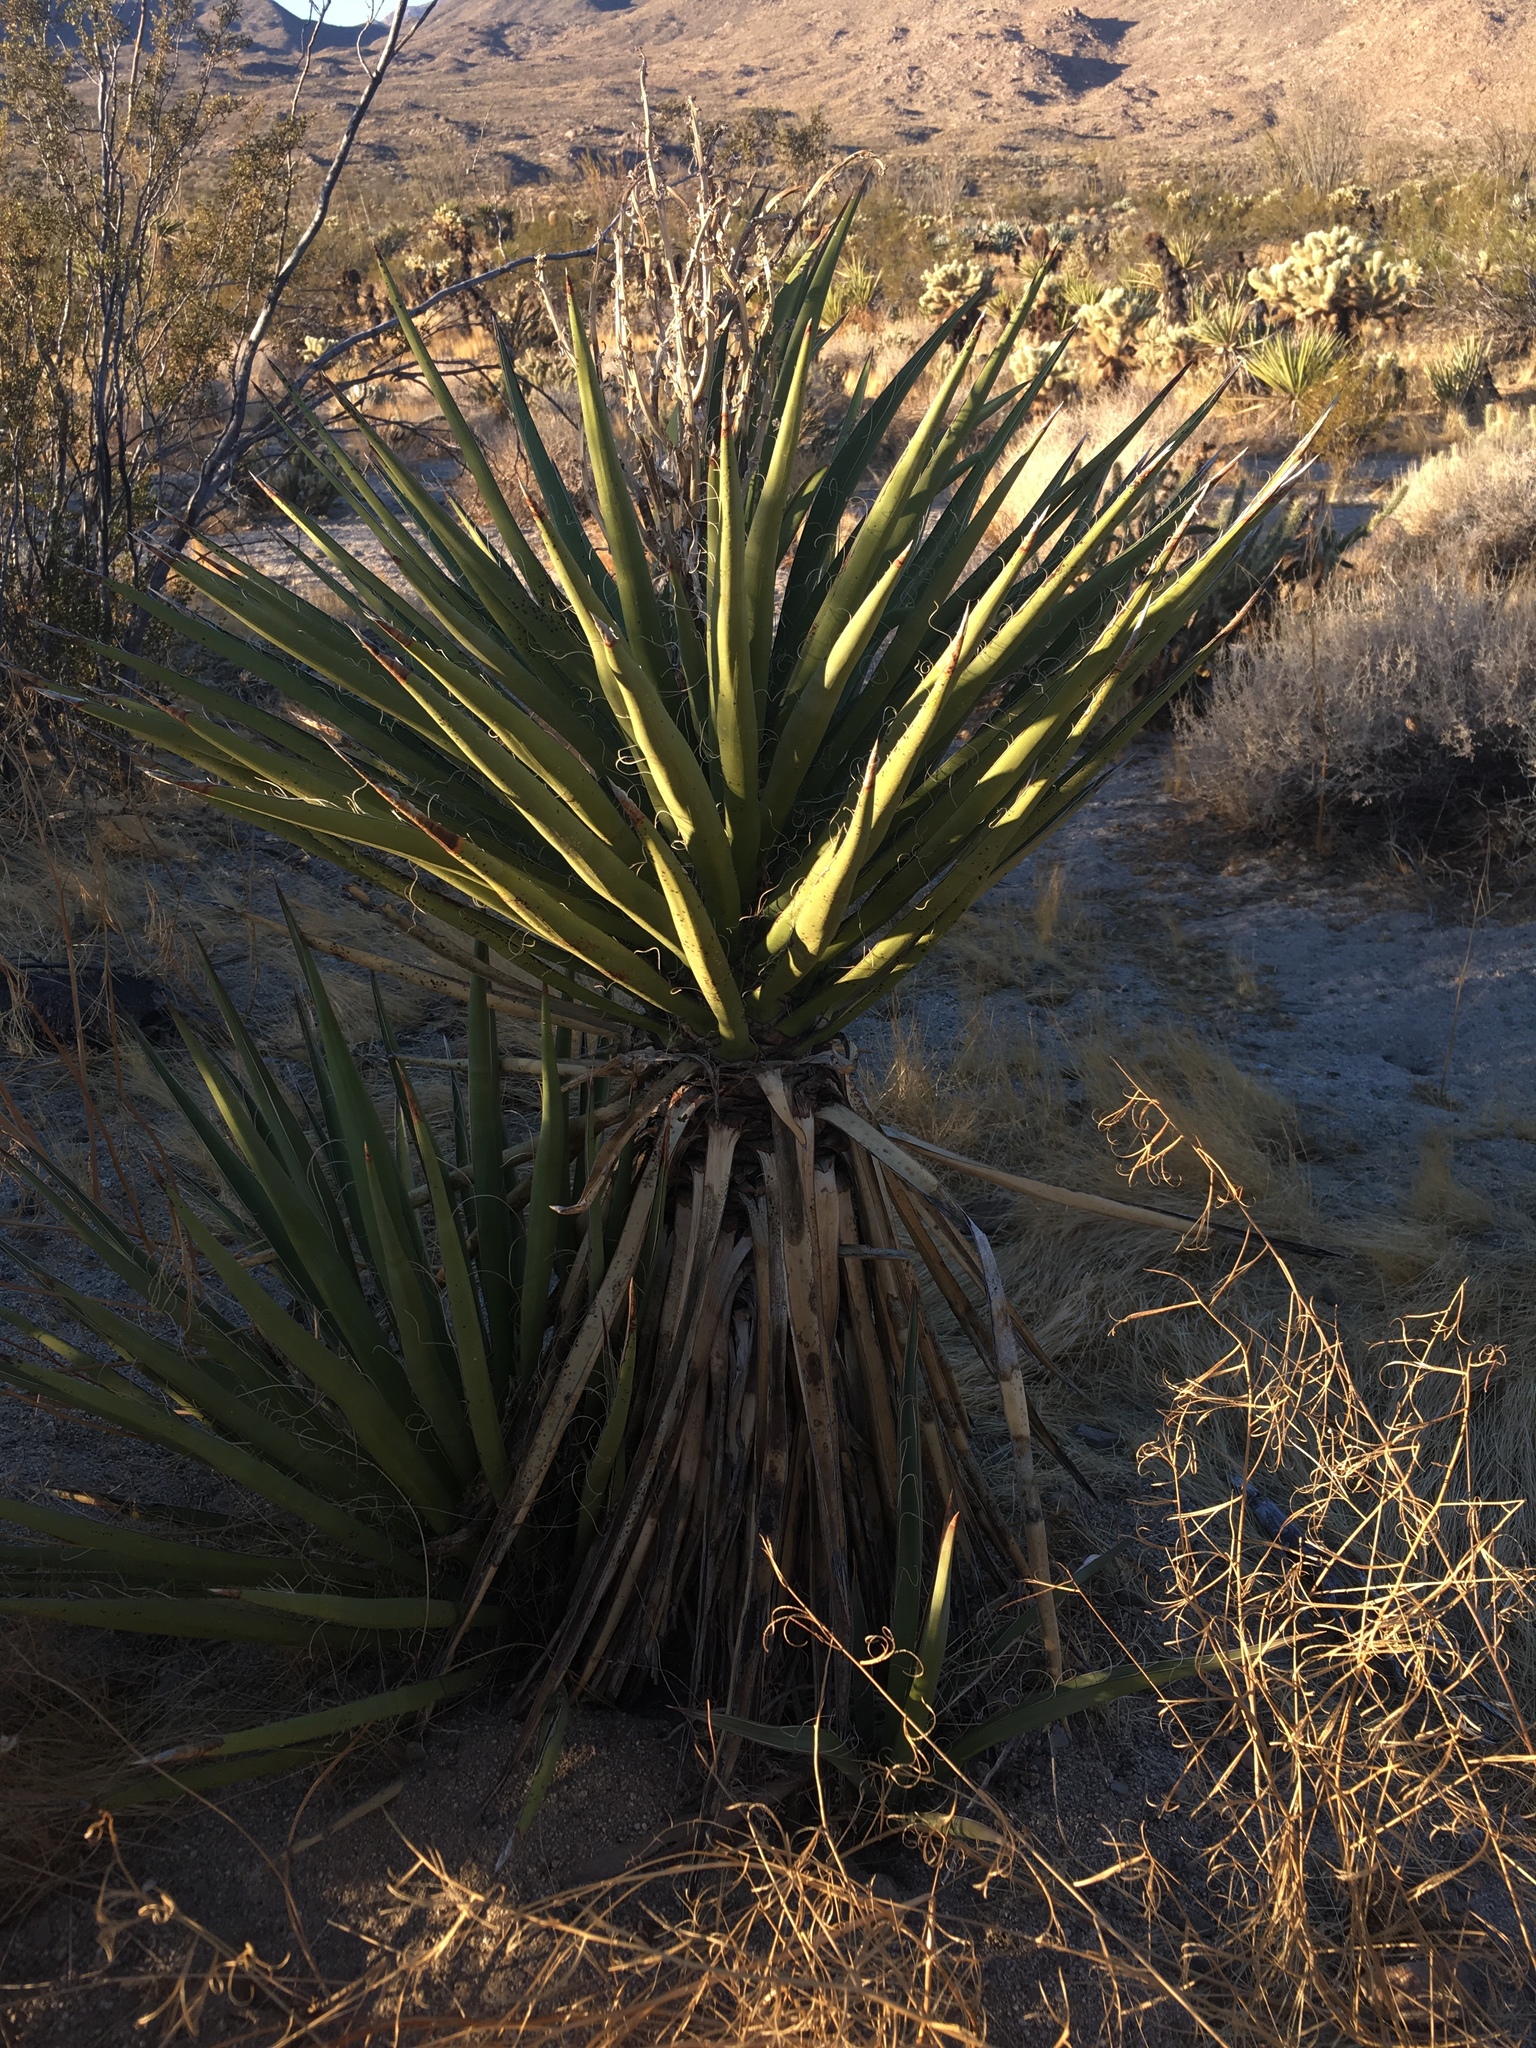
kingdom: Plantae
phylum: Tracheophyta
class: Liliopsida
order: Asparagales
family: Asparagaceae
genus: Yucca
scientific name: Yucca schidigera
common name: Mojave yucca
